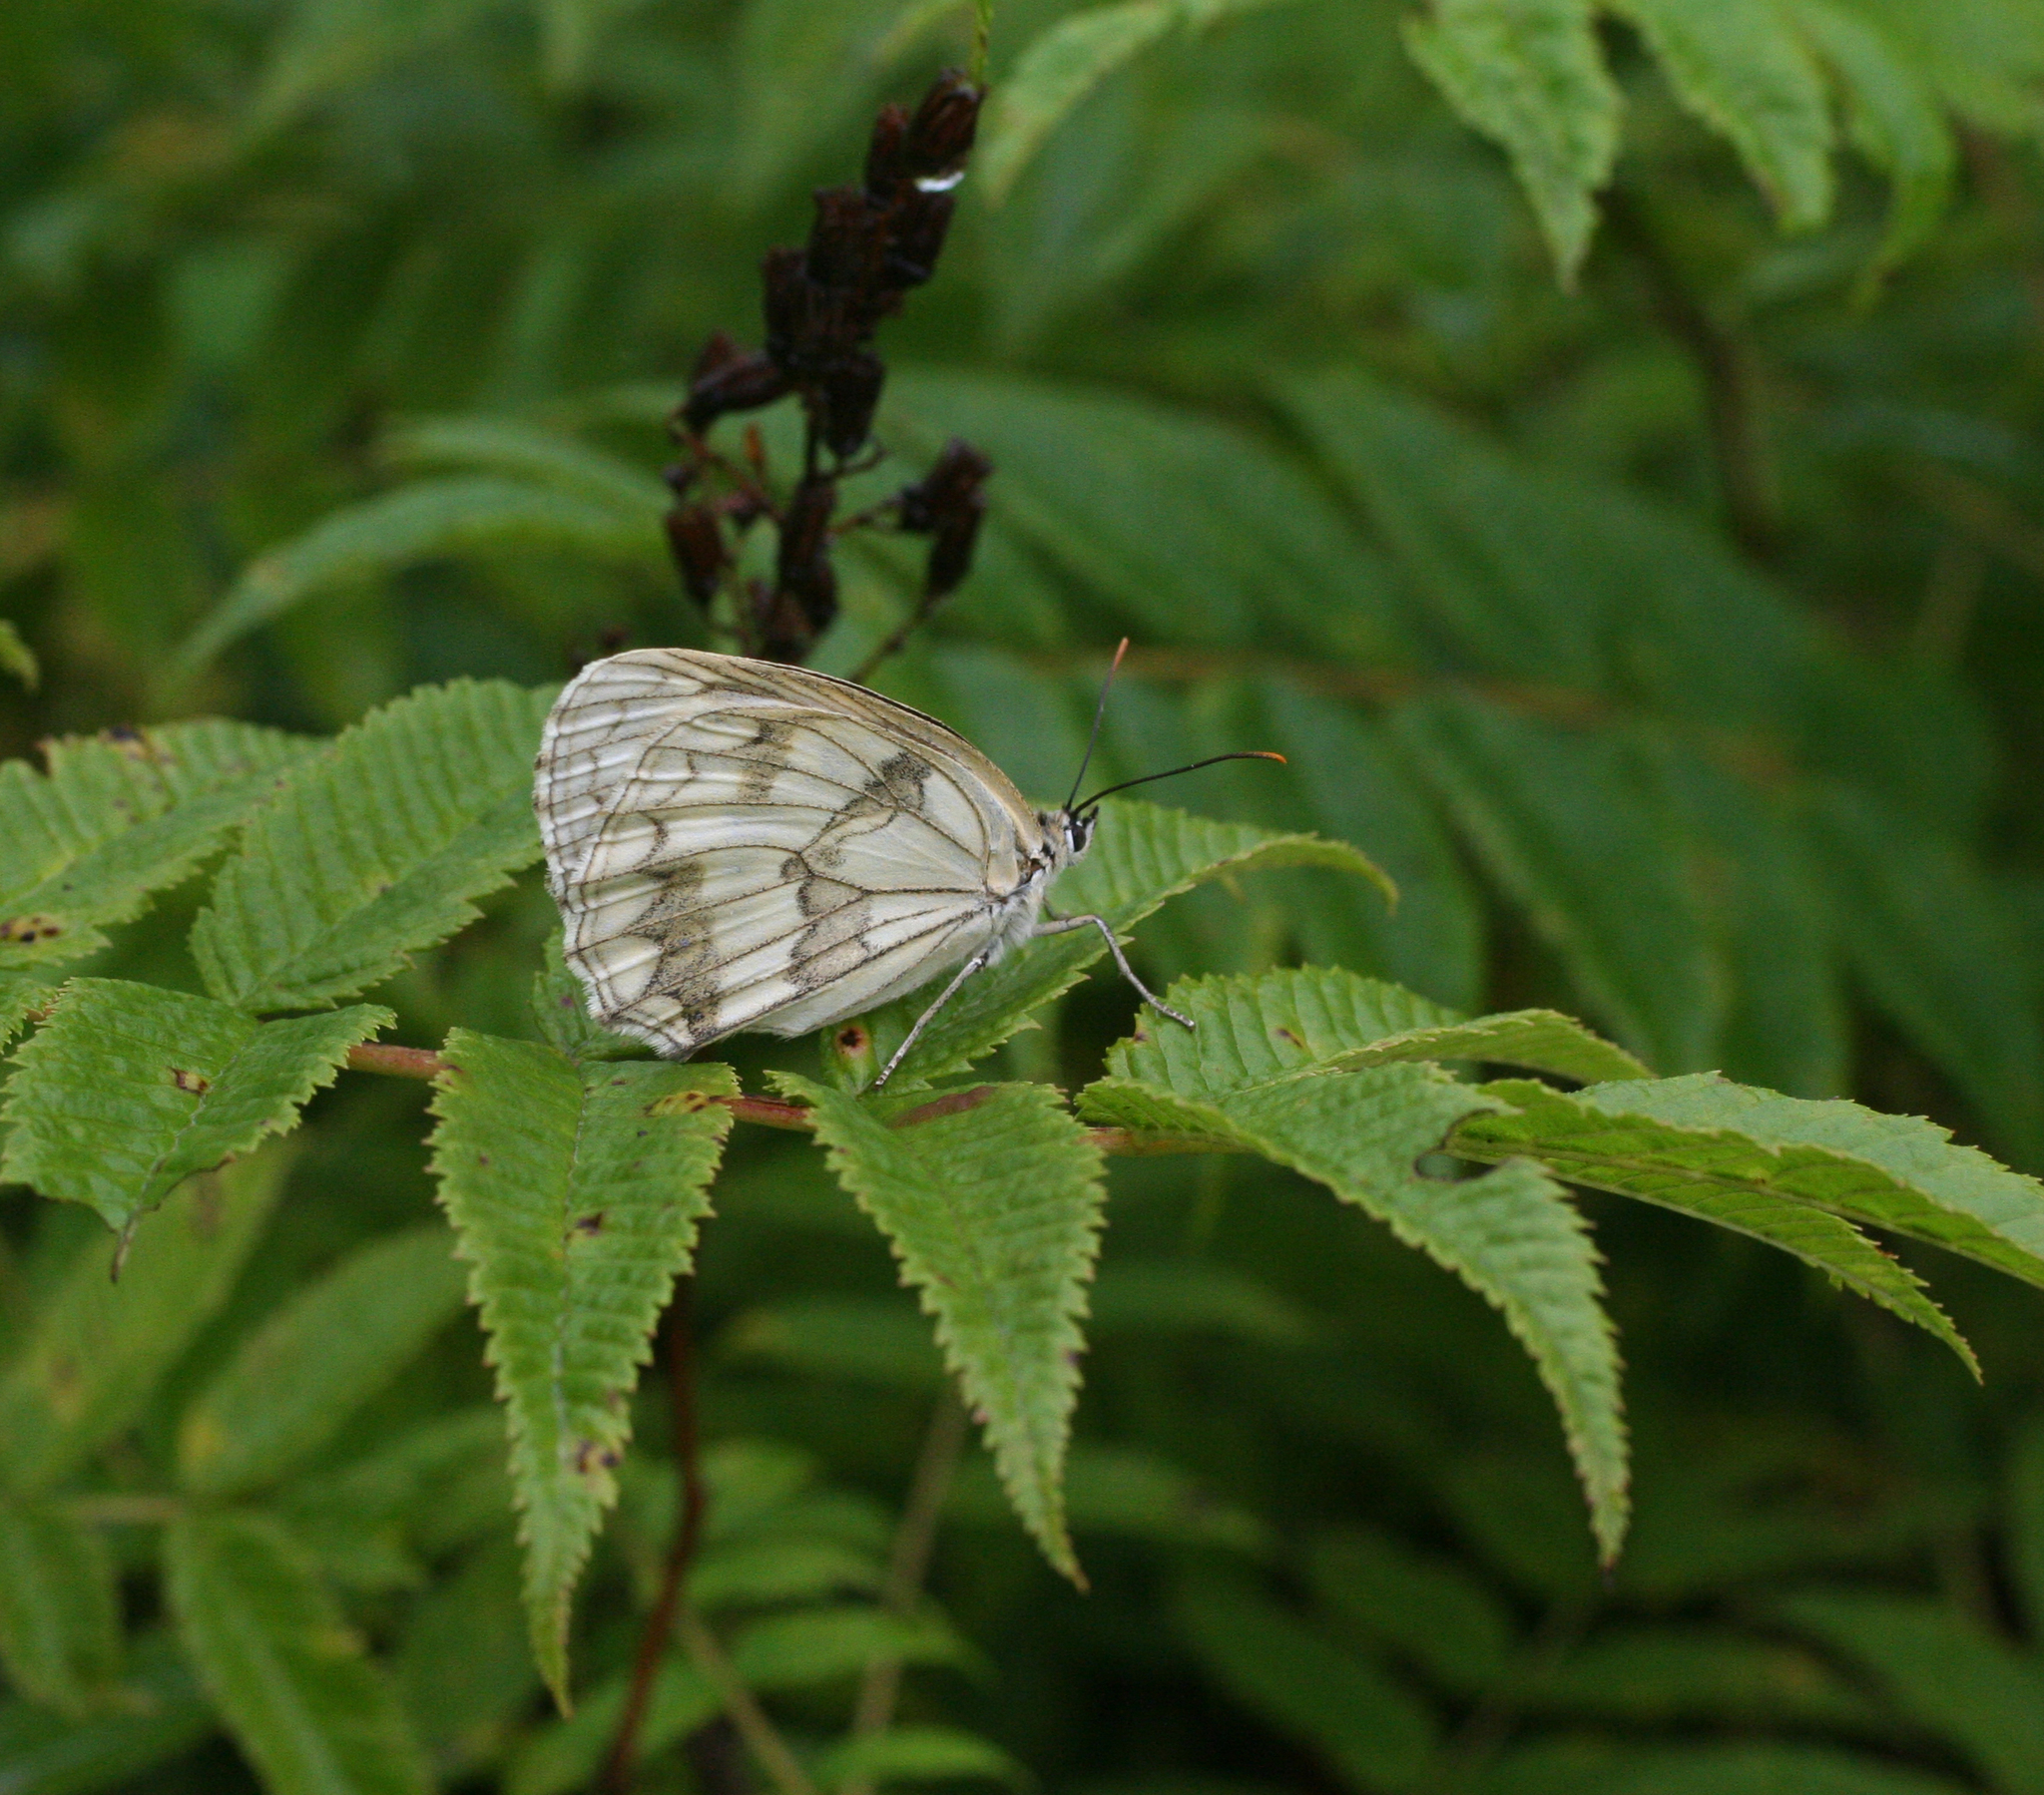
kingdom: Animalia
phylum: Arthropoda
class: Insecta
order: Lepidoptera
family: Nymphalidae
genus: Melanargia
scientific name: Melanargia halimede
